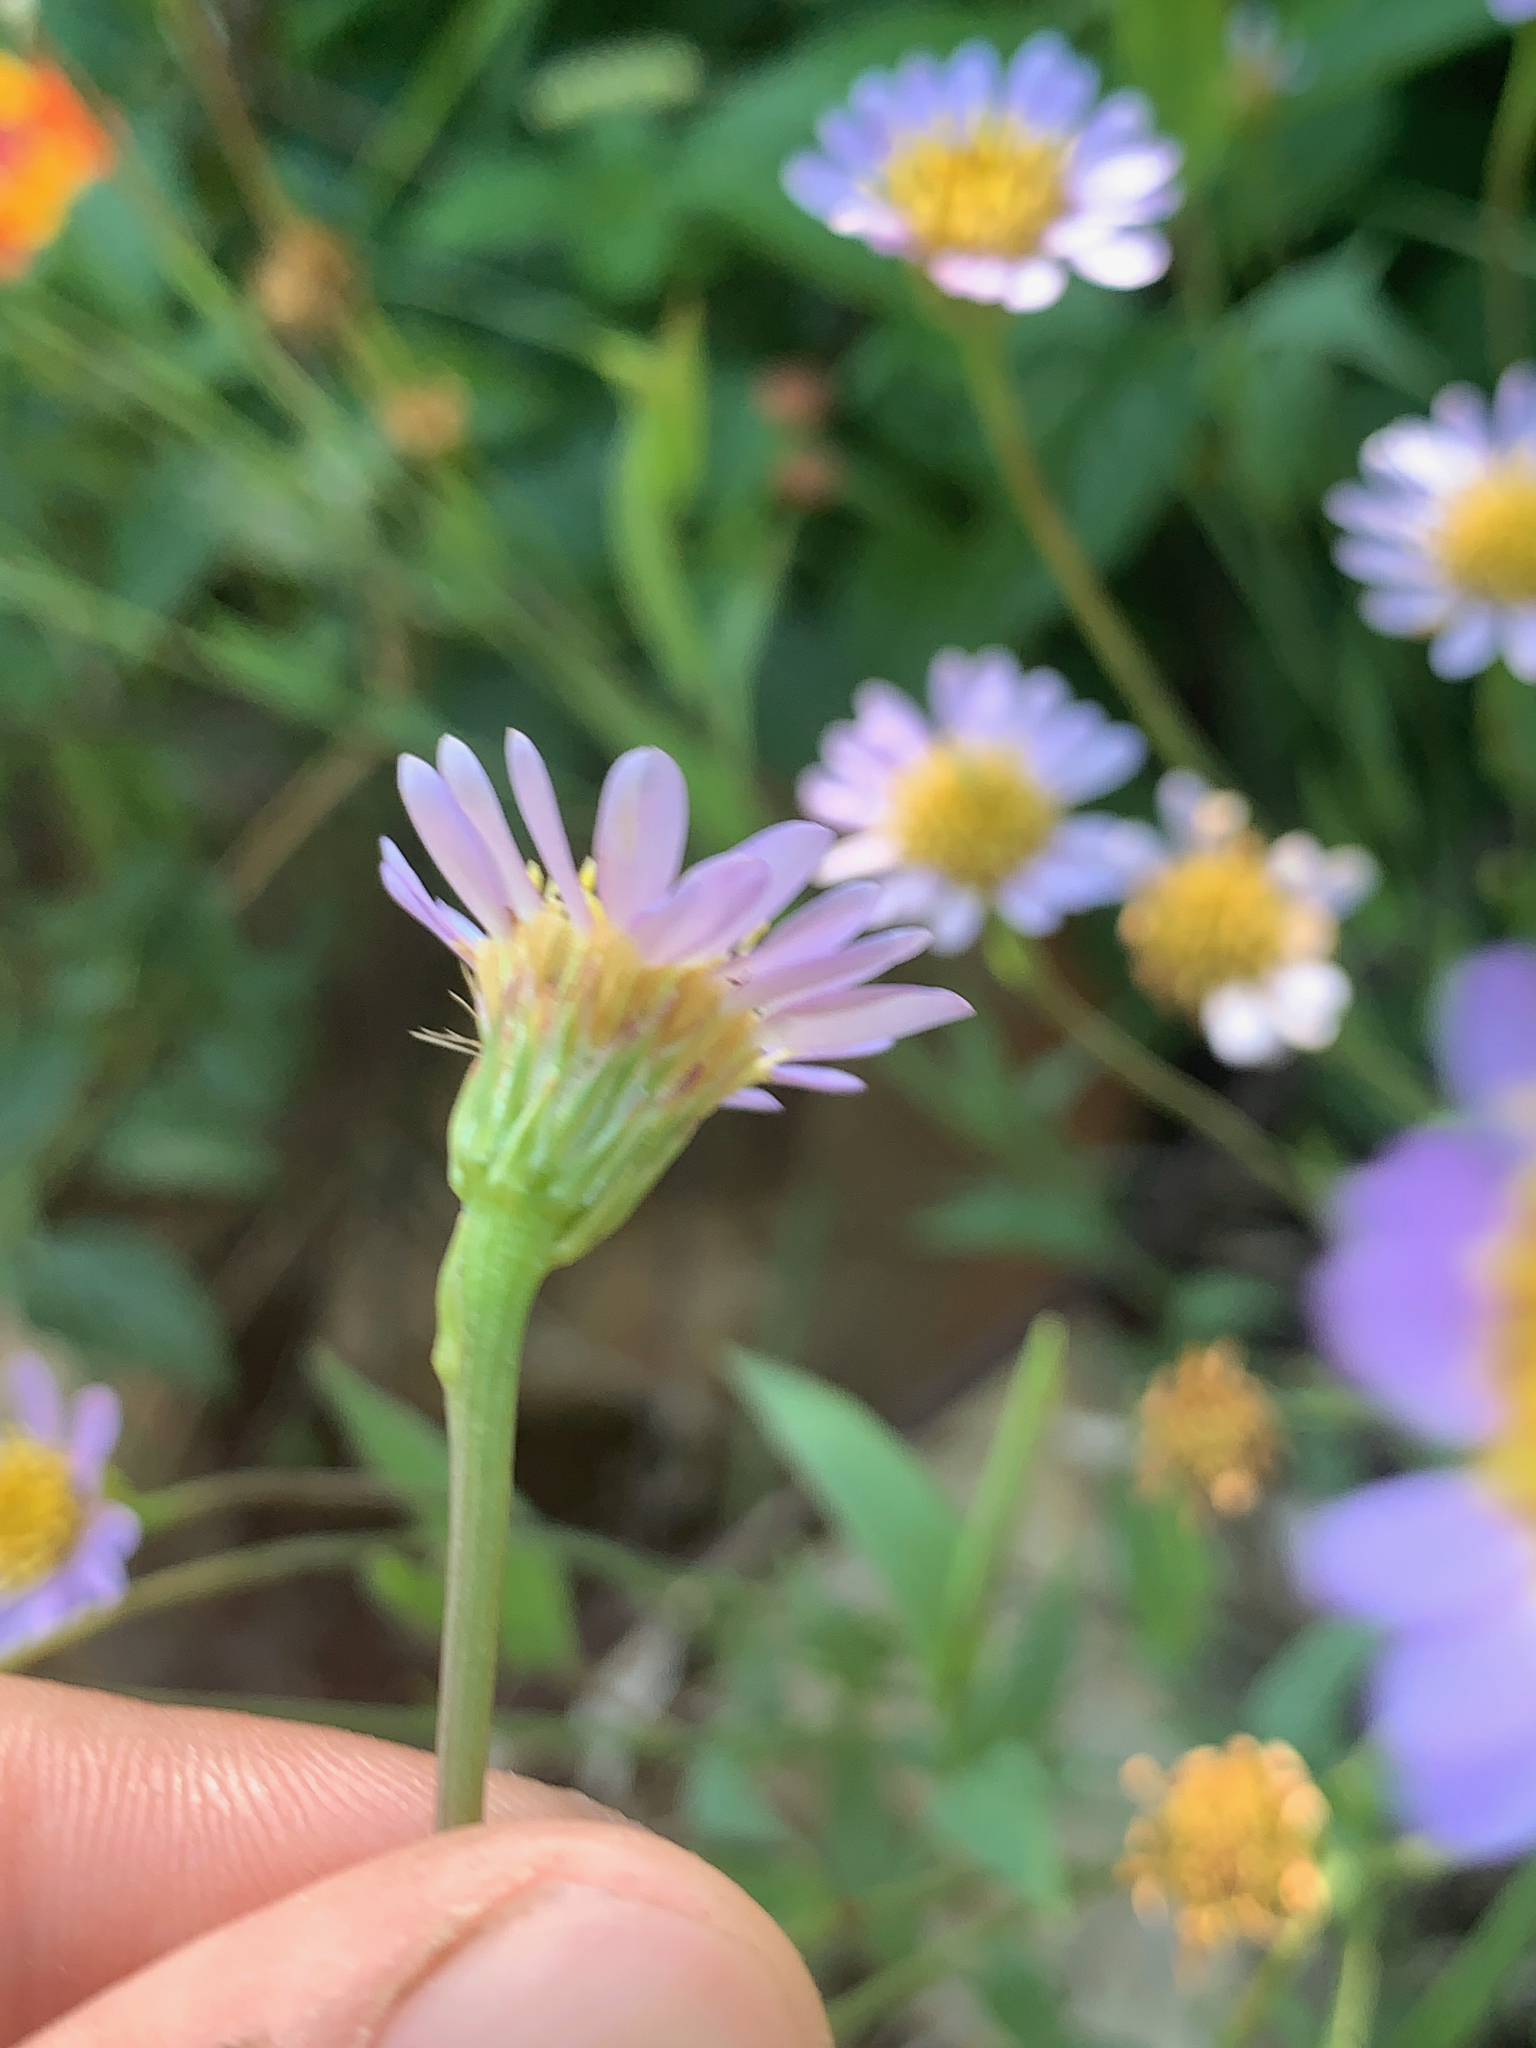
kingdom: Plantae
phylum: Tracheophyta
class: Magnoliopsida
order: Asterales
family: Asteraceae
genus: Afroaster
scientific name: Afroaster serrulatus
